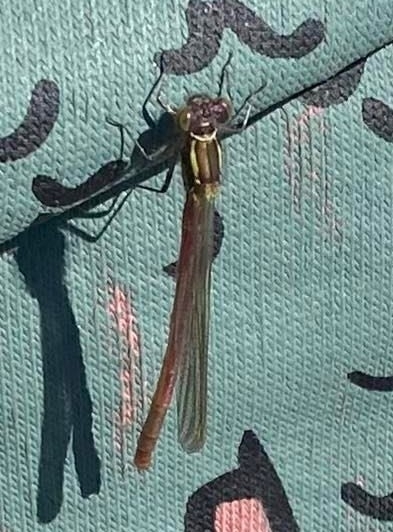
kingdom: Animalia
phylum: Arthropoda
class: Insecta
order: Odonata
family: Coenagrionidae
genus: Pyrrhosoma
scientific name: Pyrrhosoma nymphula
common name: Large red damsel
